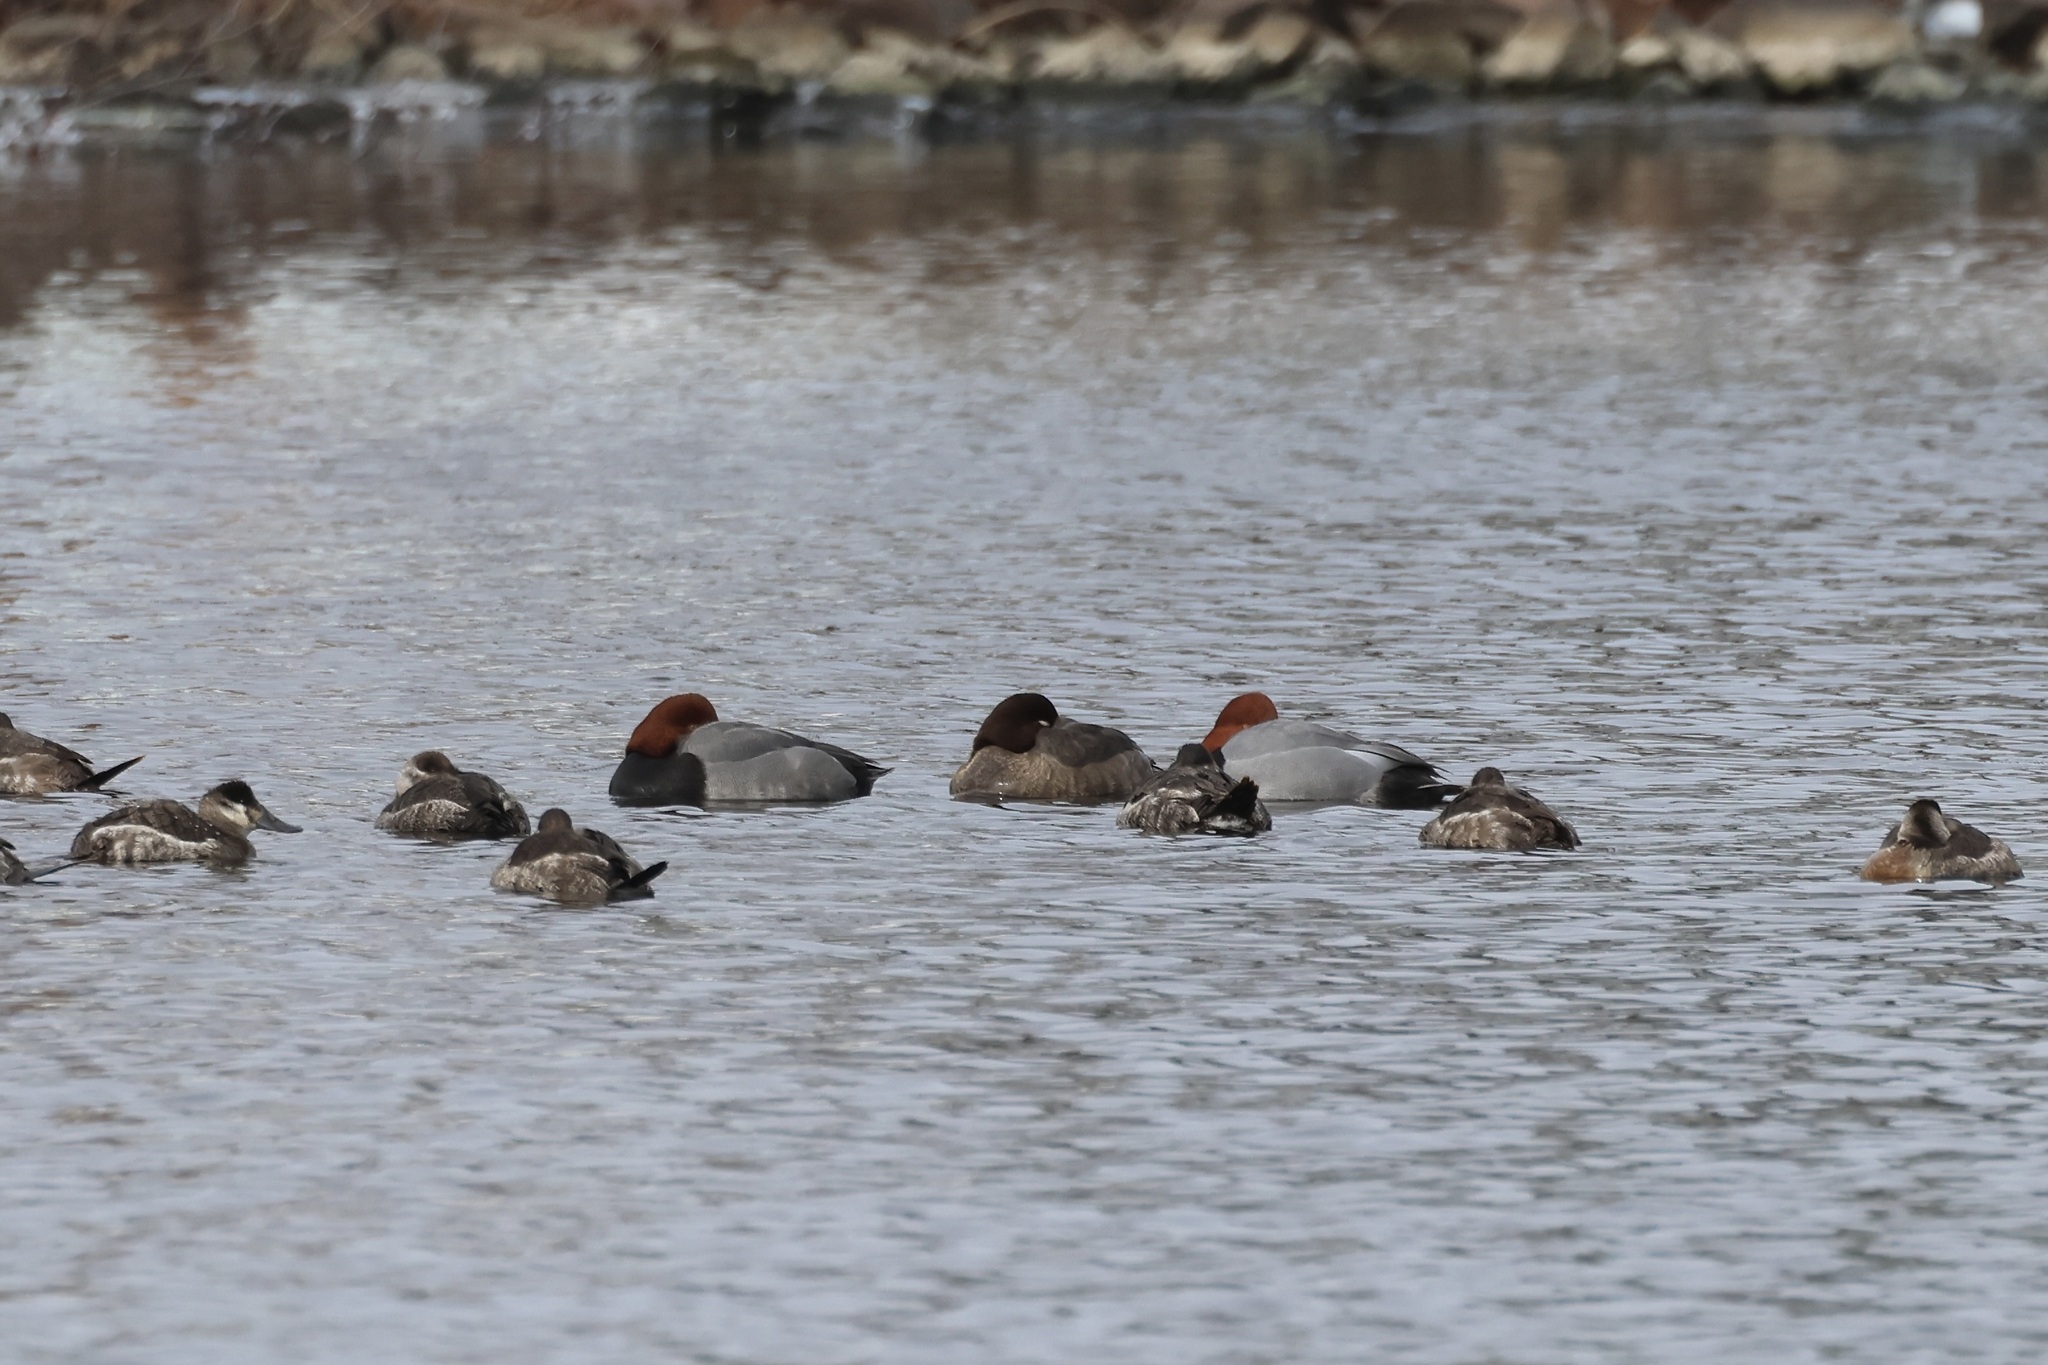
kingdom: Animalia
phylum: Chordata
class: Aves
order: Anseriformes
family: Anatidae
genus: Aythya
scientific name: Aythya americana
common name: Redhead
